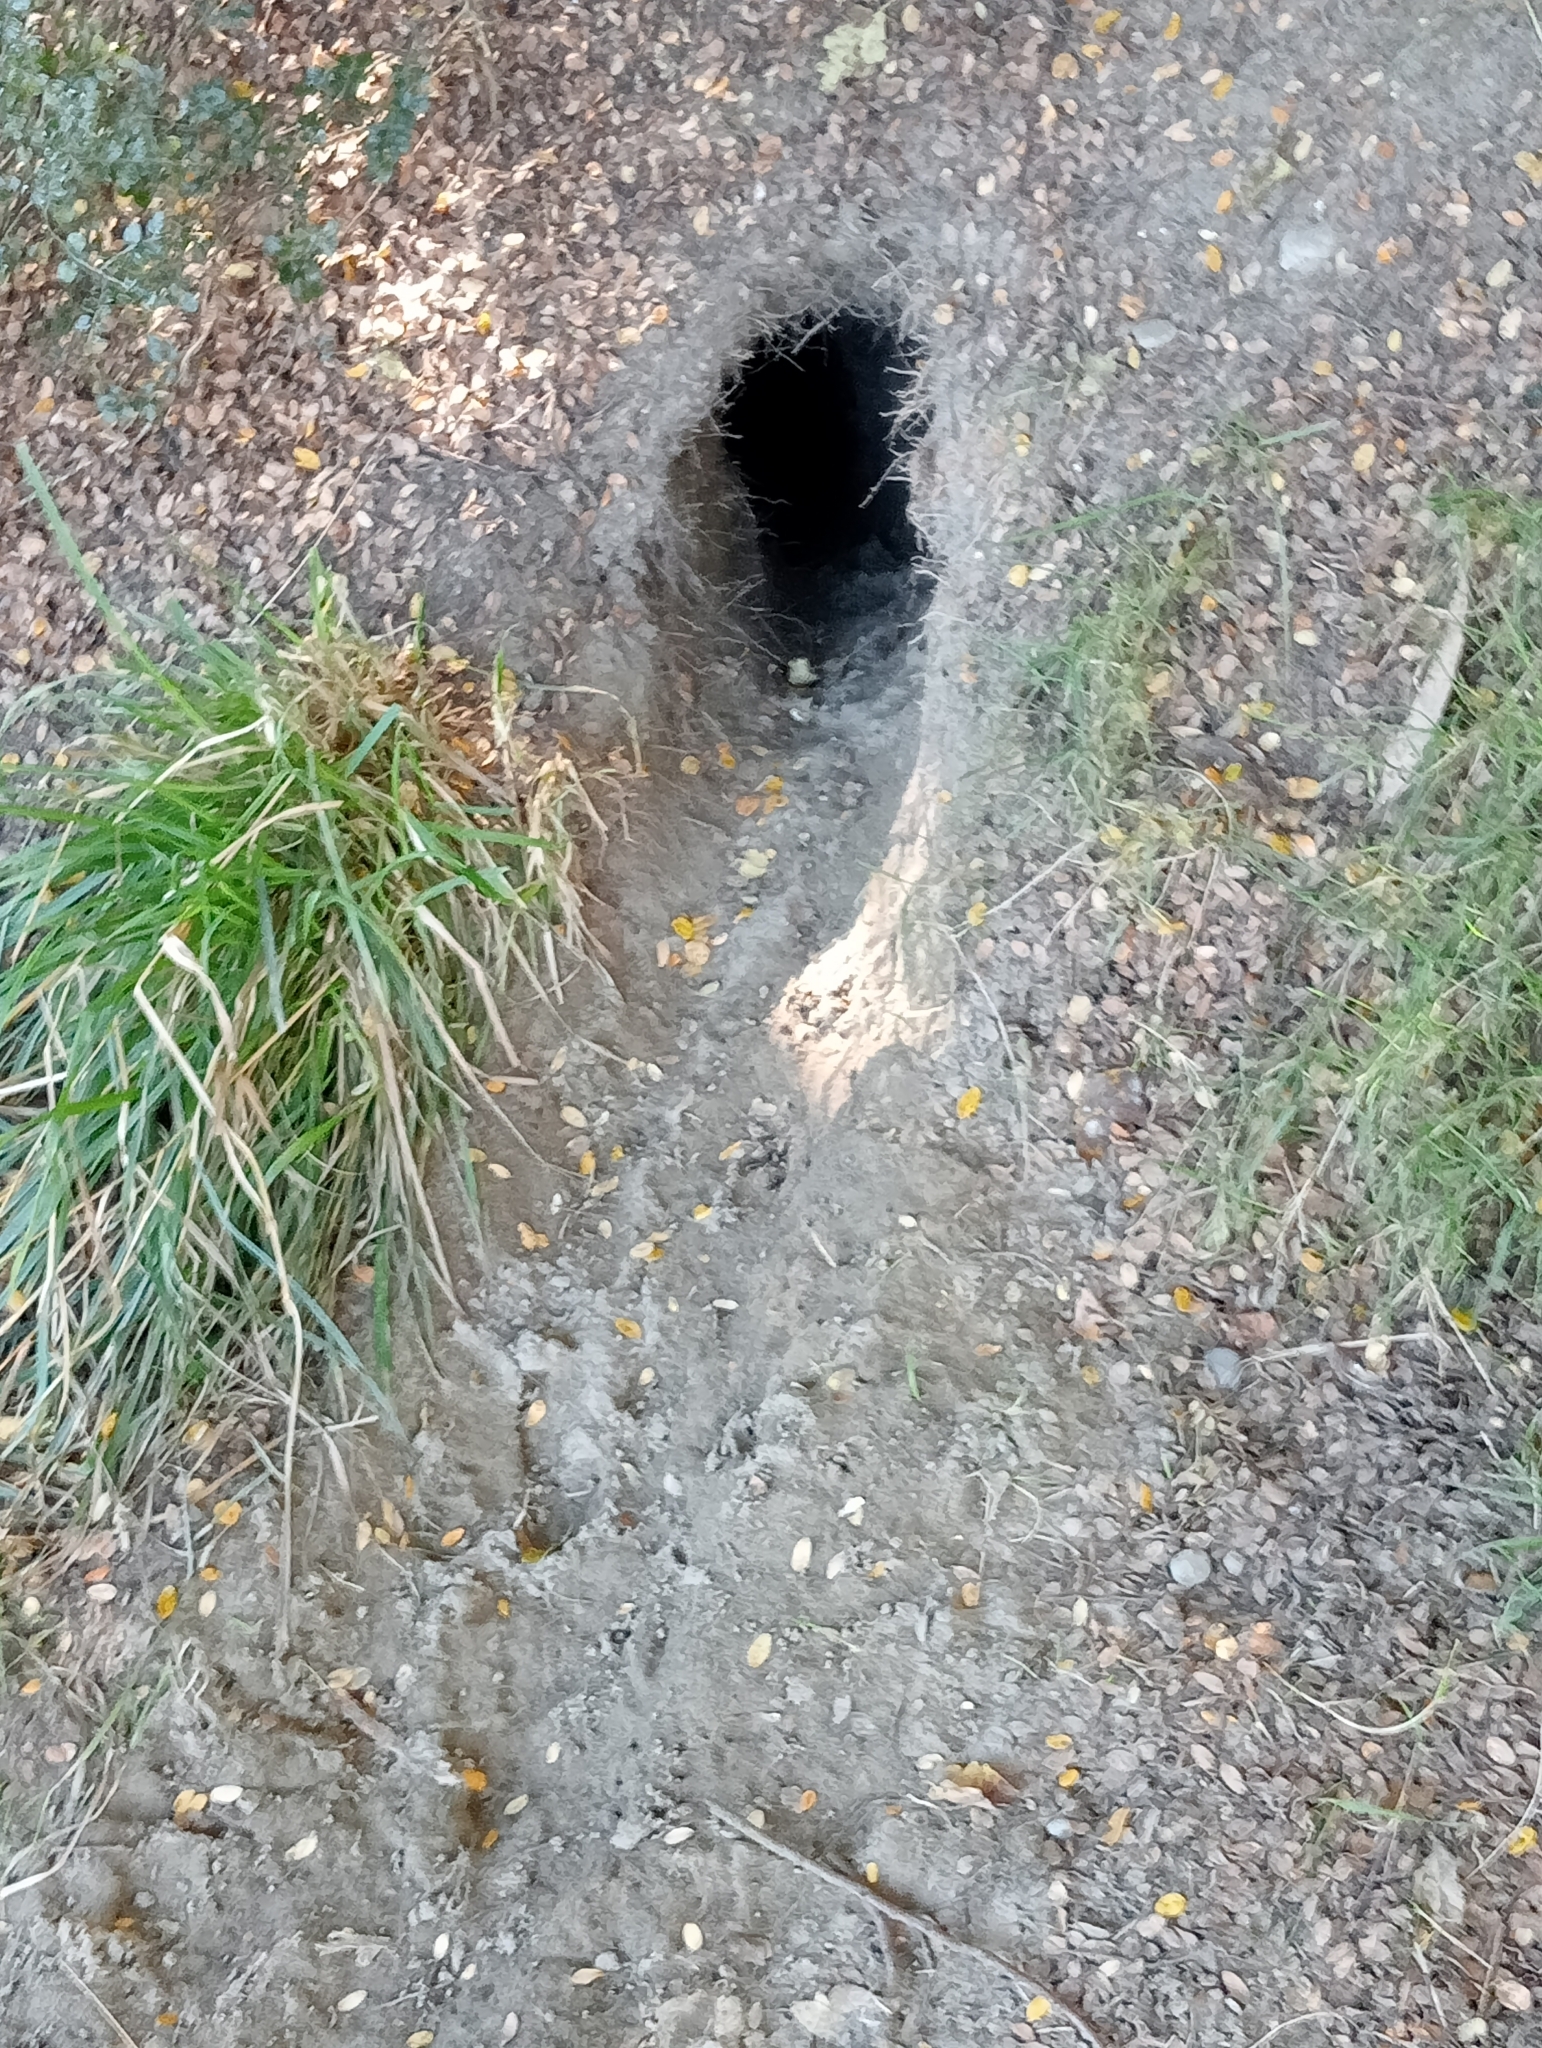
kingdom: Animalia
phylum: Chordata
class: Mammalia
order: Lagomorpha
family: Leporidae
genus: Oryctolagus
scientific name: Oryctolagus cuniculus
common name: European rabbit
